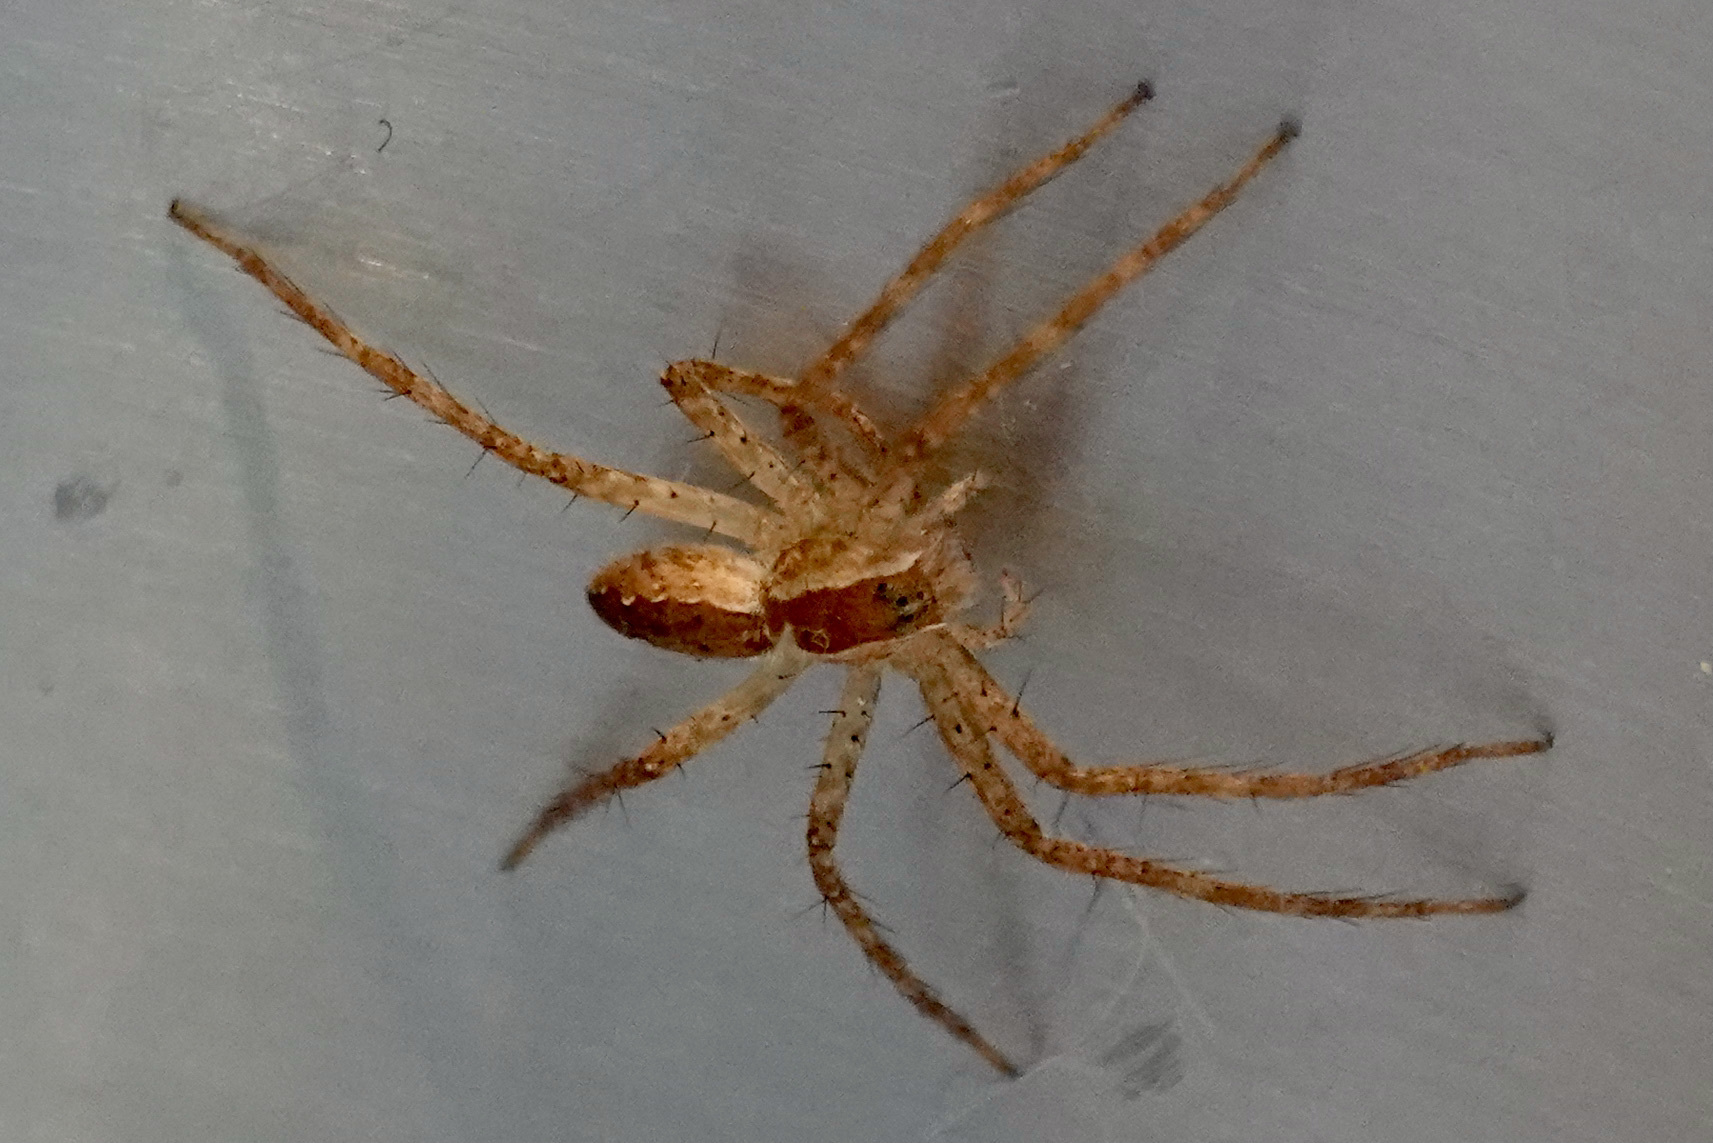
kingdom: Animalia
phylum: Arthropoda
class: Arachnida
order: Araneae
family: Pisauridae
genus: Pisaurina
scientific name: Pisaurina mira
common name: American nursery web spider
